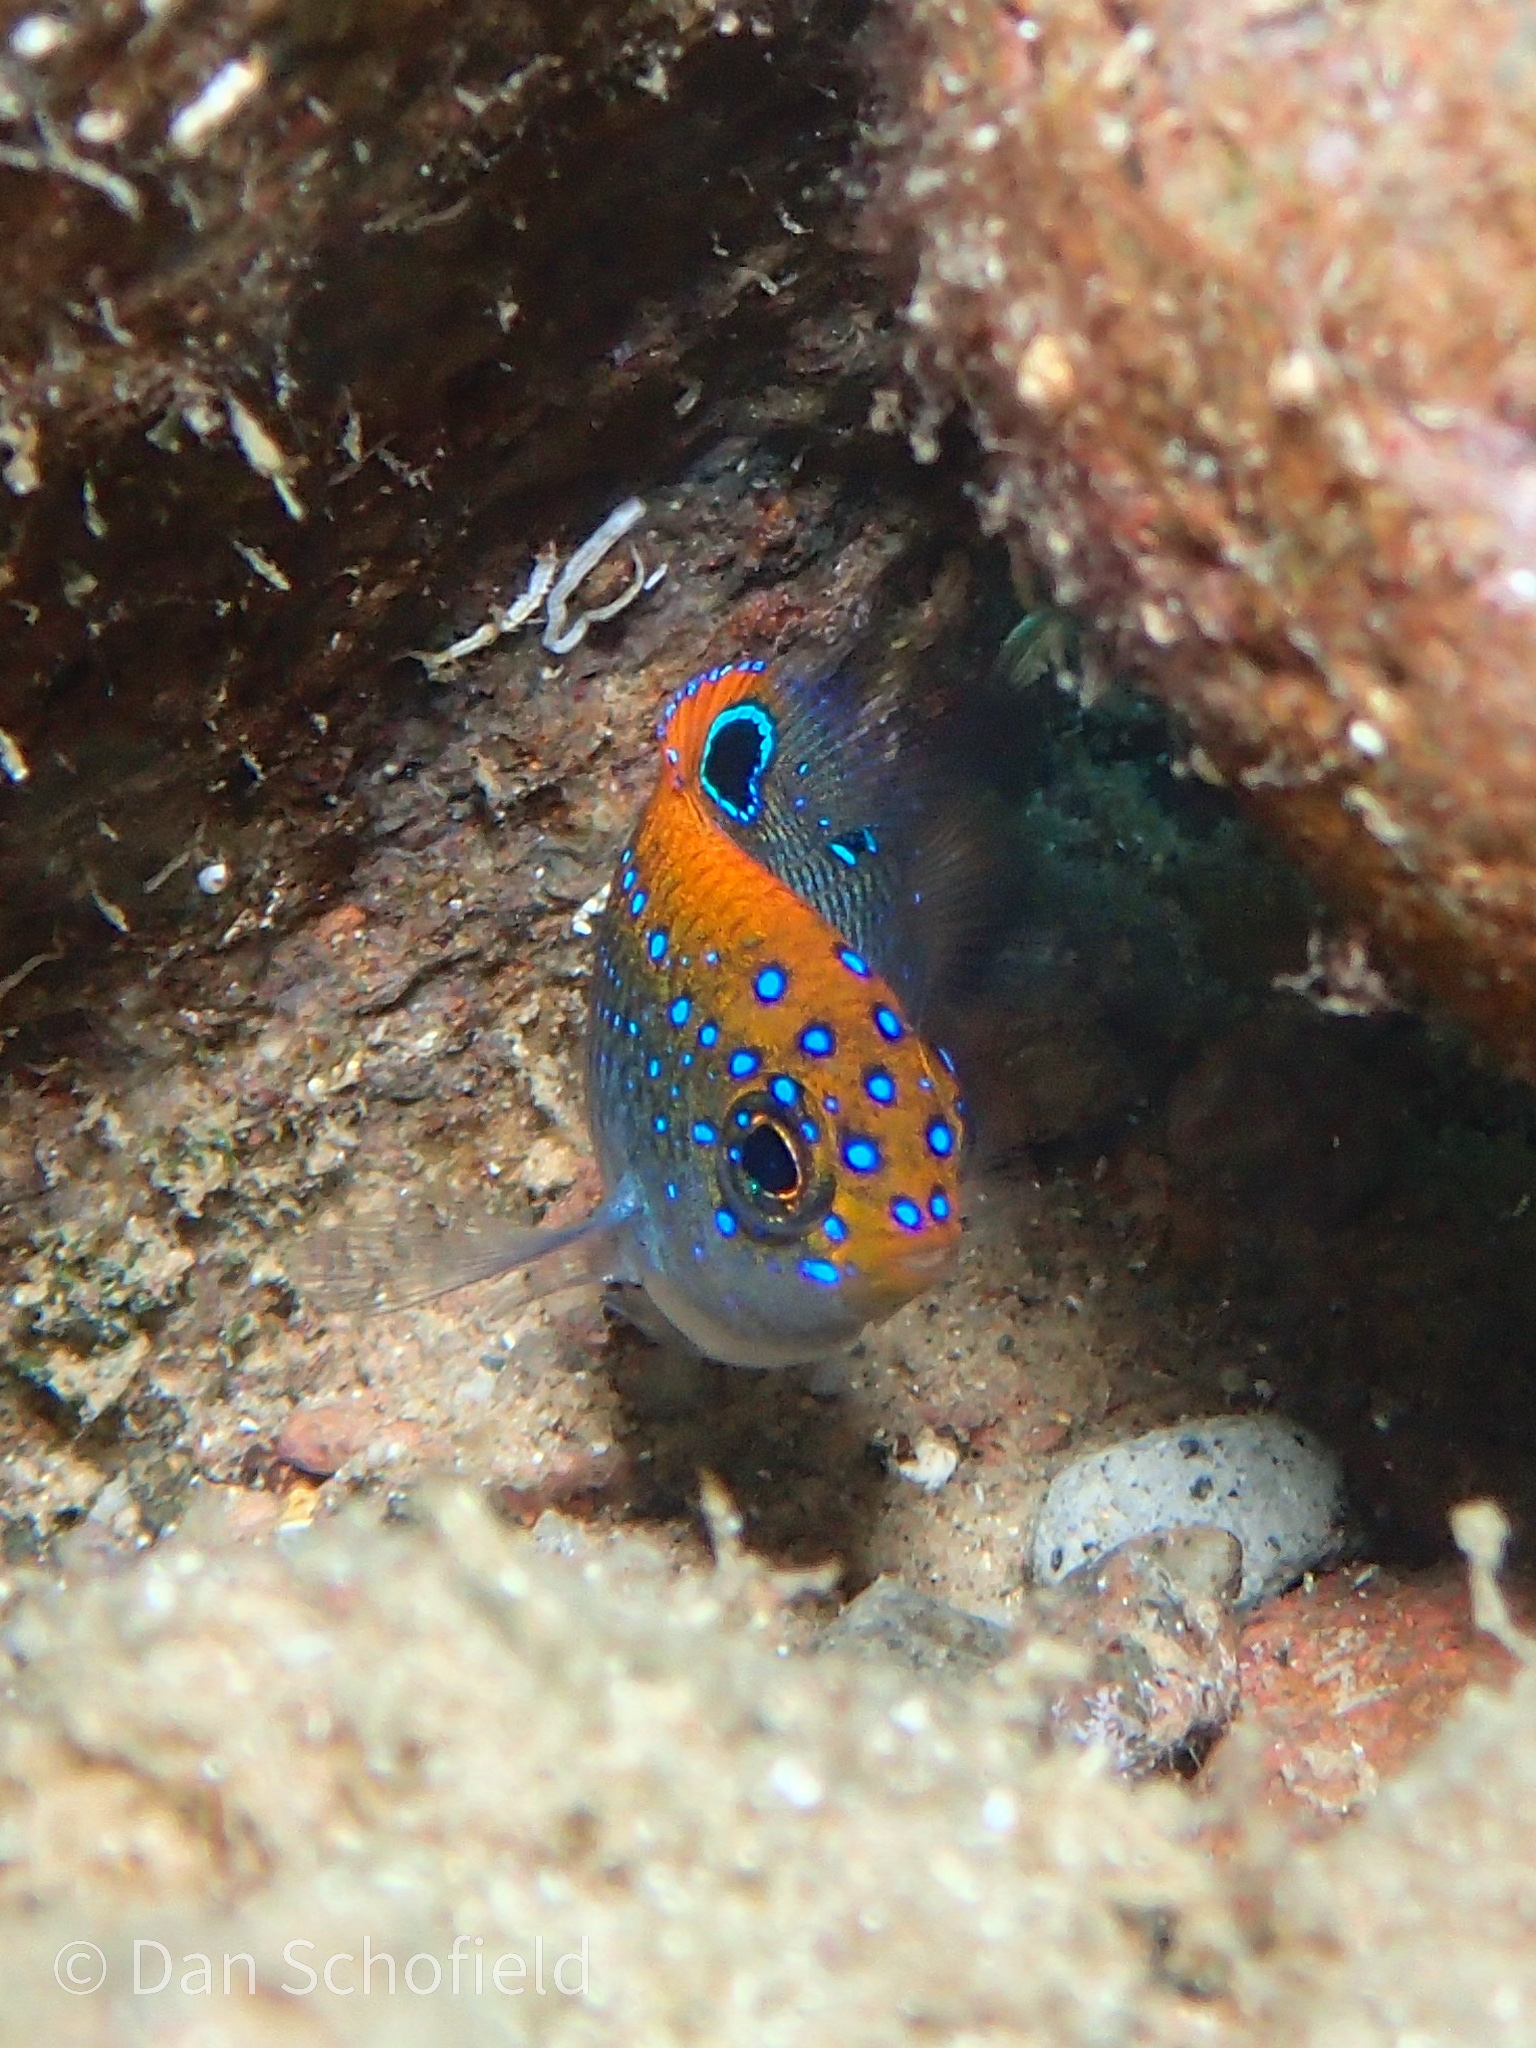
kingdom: Animalia
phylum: Chordata
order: Perciformes
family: Pomacentridae
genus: Stegastes
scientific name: Stegastes adustus
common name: Dusky damselfish
